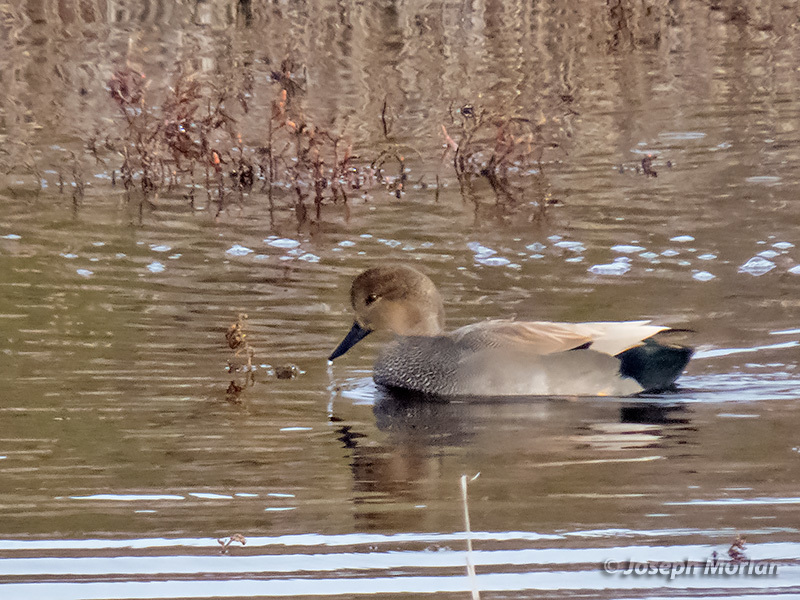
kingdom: Animalia
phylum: Chordata
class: Aves
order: Anseriformes
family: Anatidae
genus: Mareca
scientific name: Mareca strepera
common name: Gadwall
